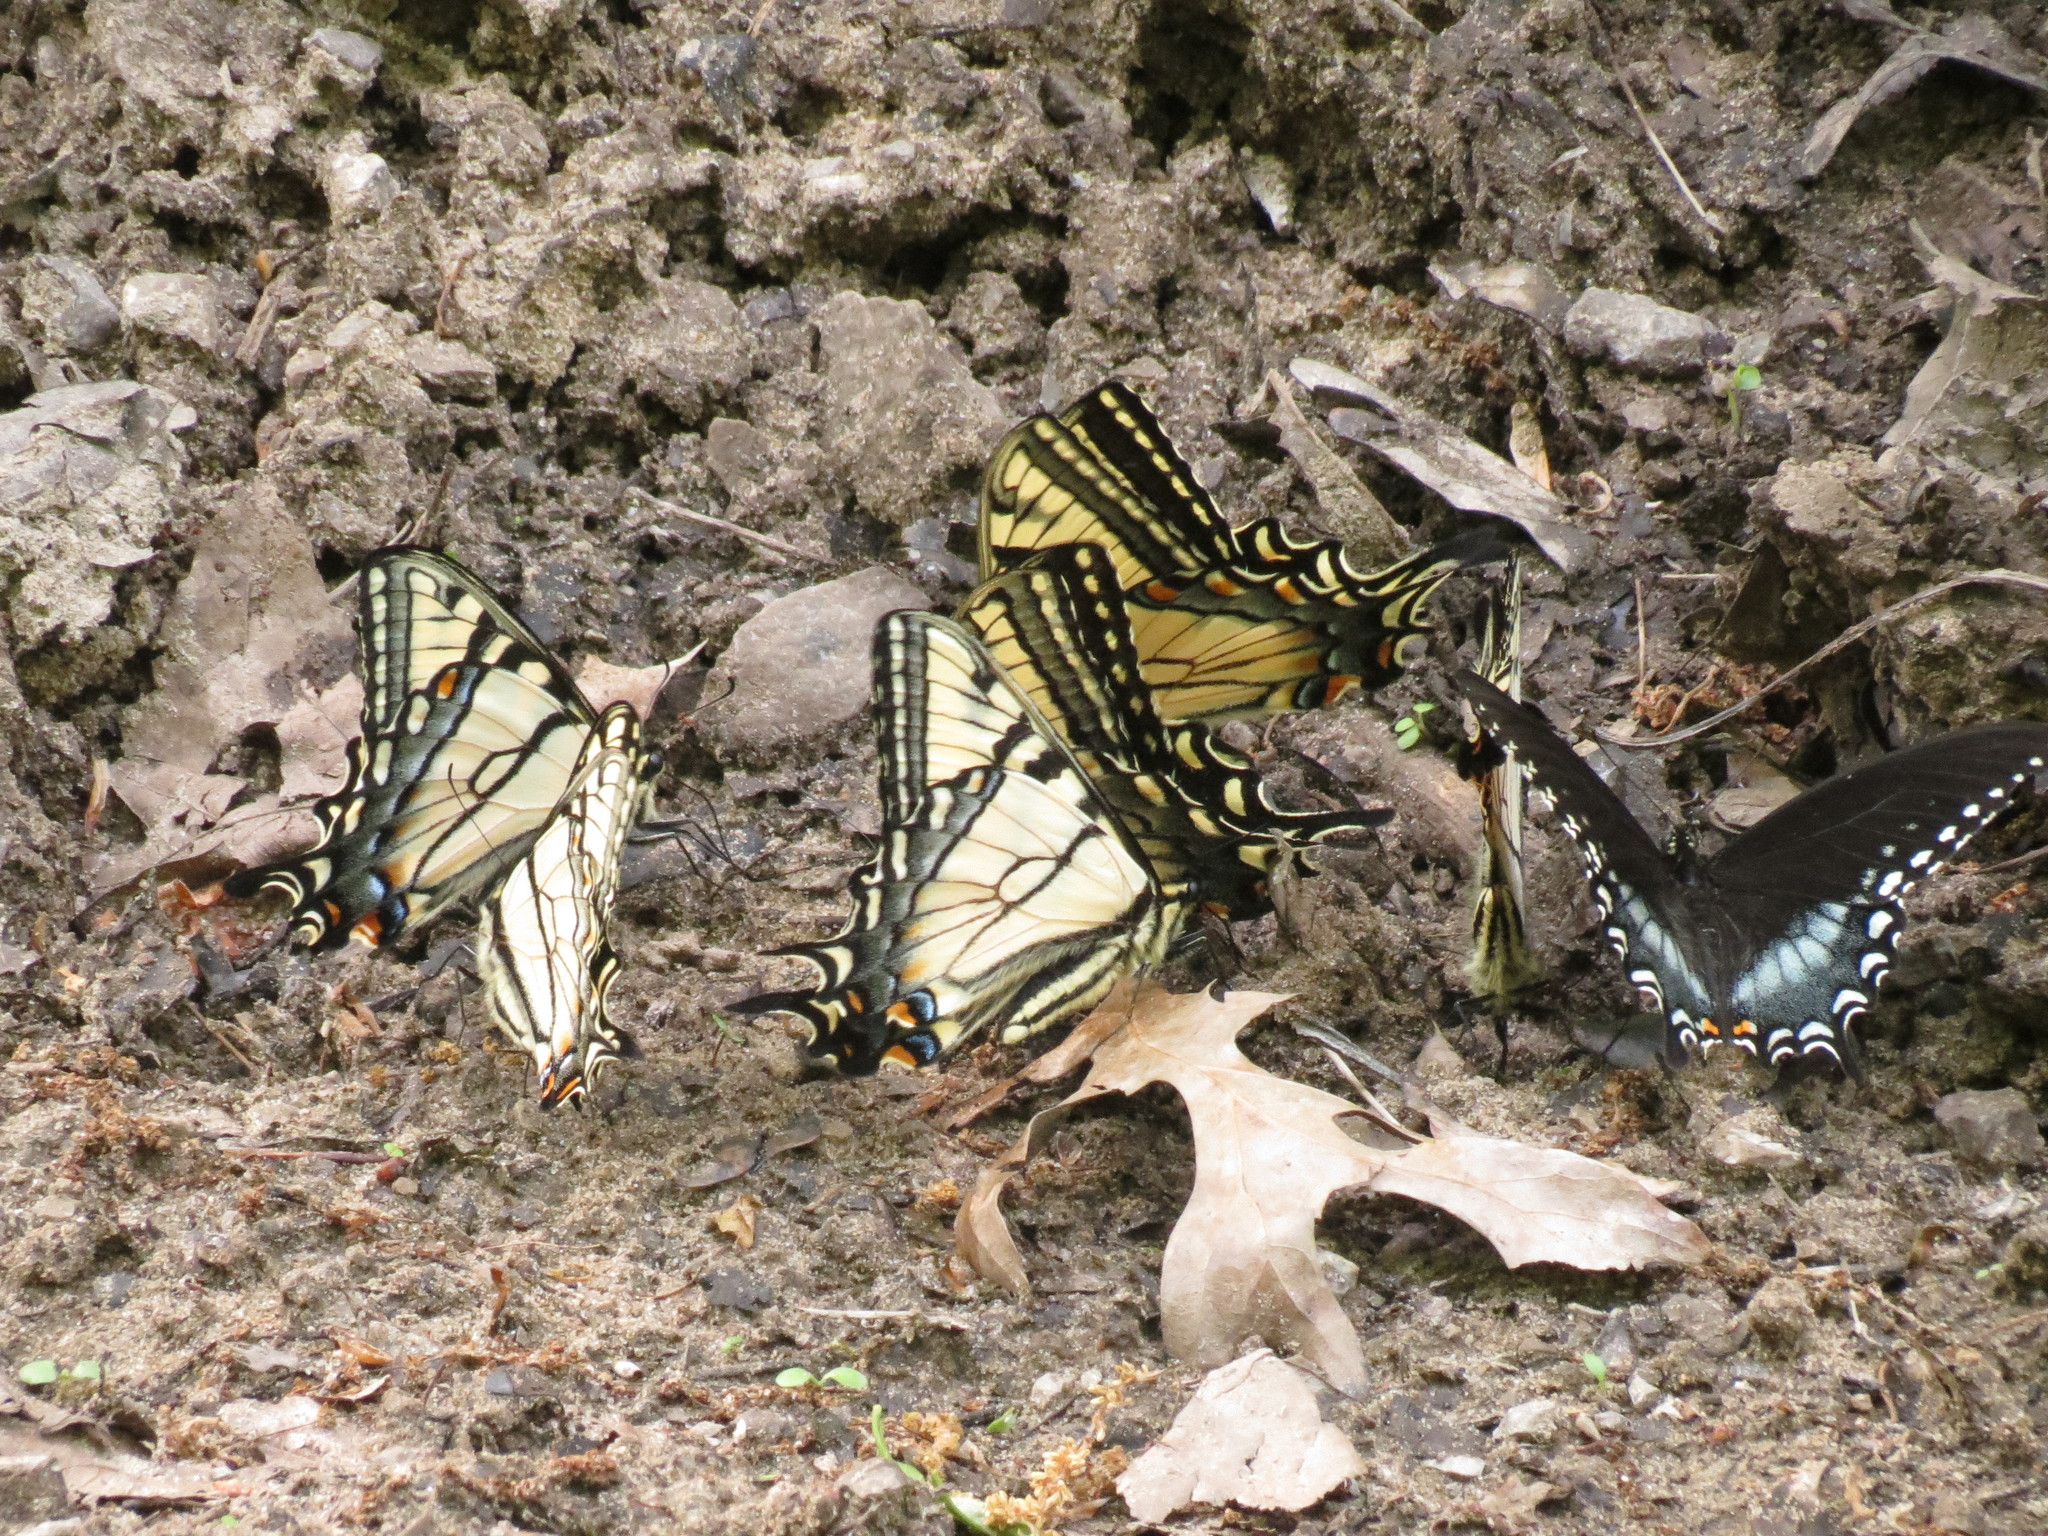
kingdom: Animalia
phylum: Arthropoda
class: Insecta
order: Lepidoptera
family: Papilionidae
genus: Papilio
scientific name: Papilio glaucus
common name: Tiger swallowtail
